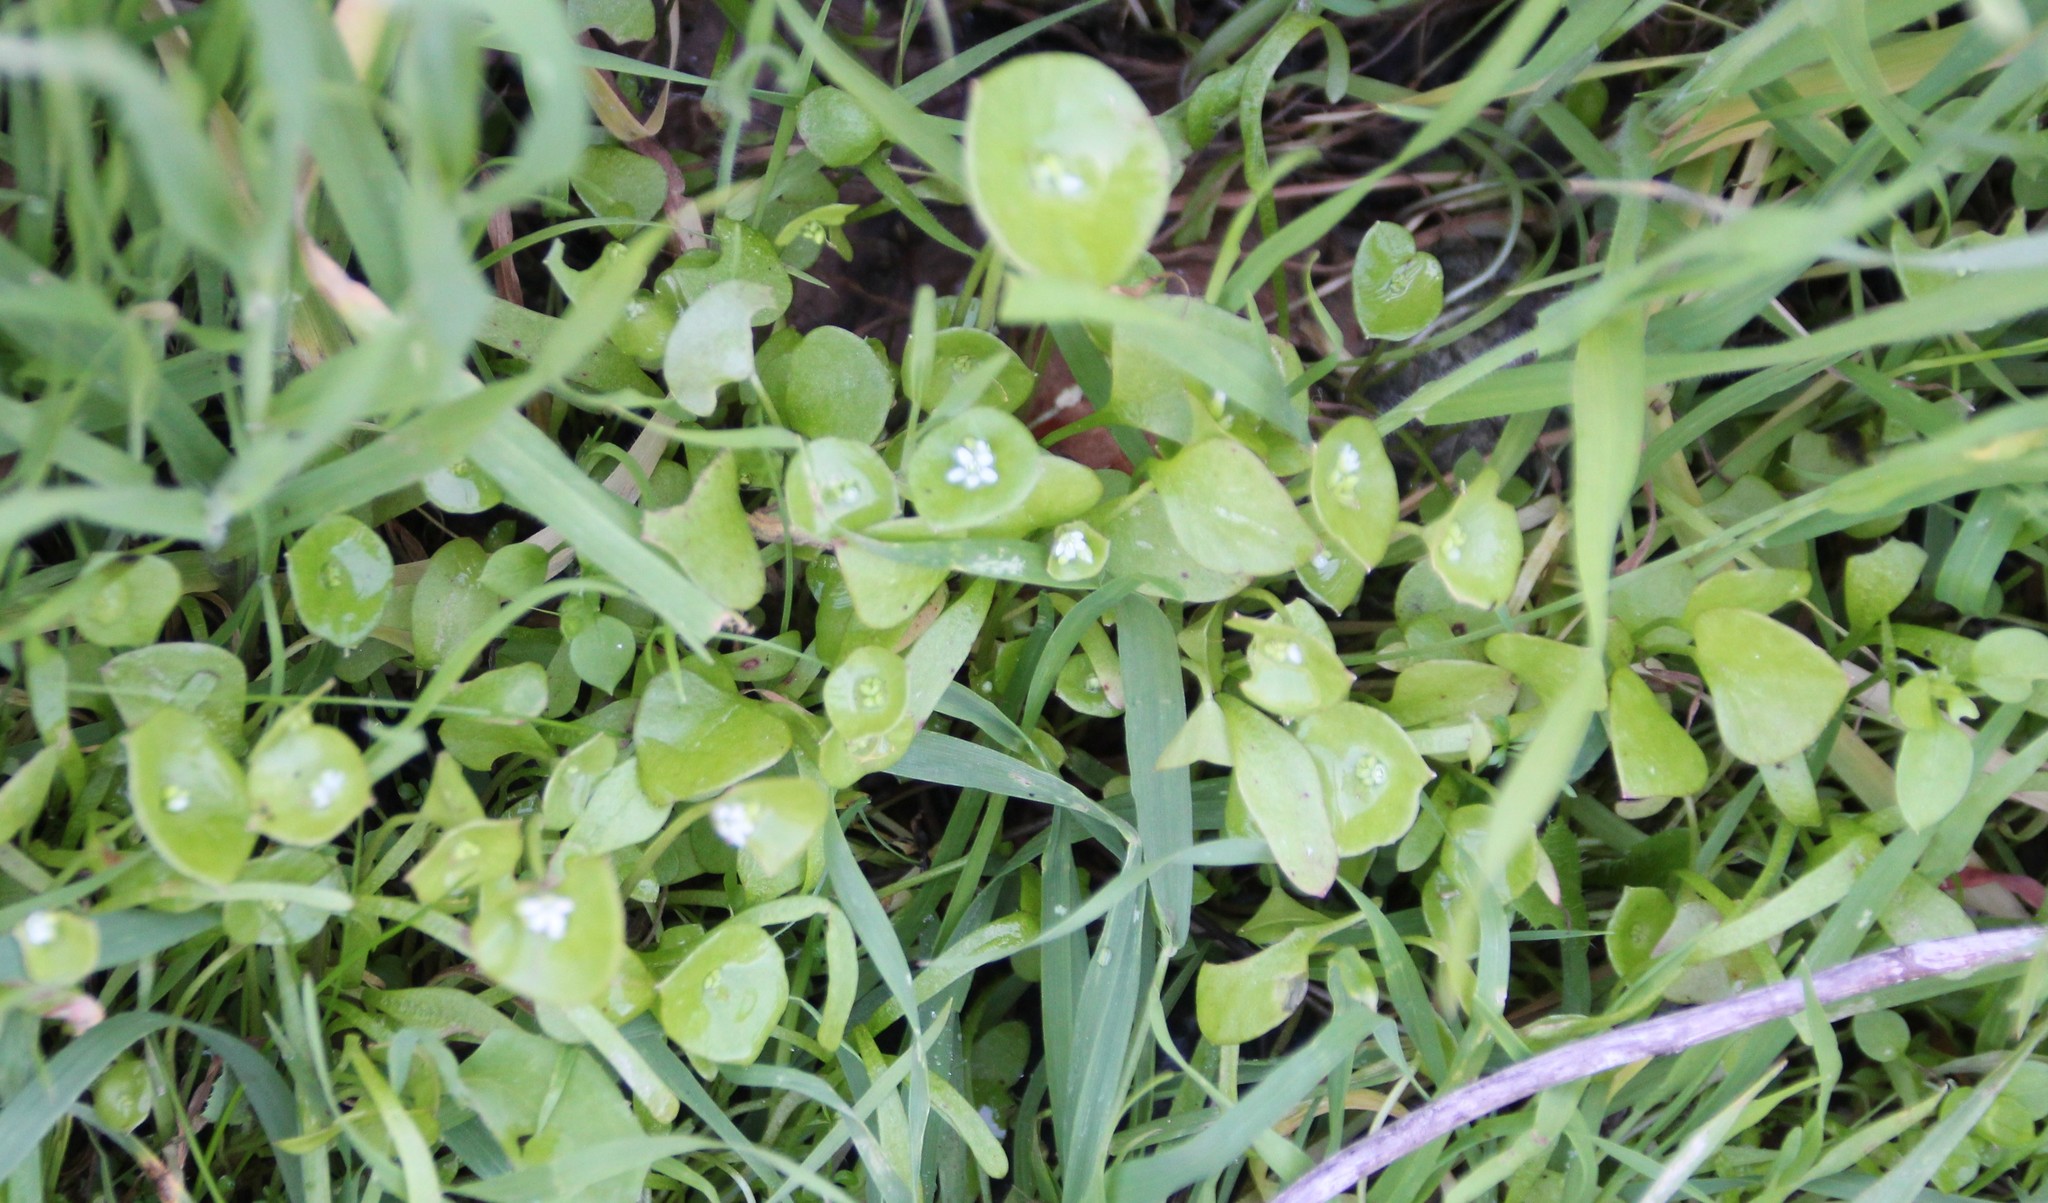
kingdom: Plantae
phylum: Tracheophyta
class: Magnoliopsida
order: Caryophyllales
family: Montiaceae
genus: Claytonia
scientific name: Claytonia perfoliata
